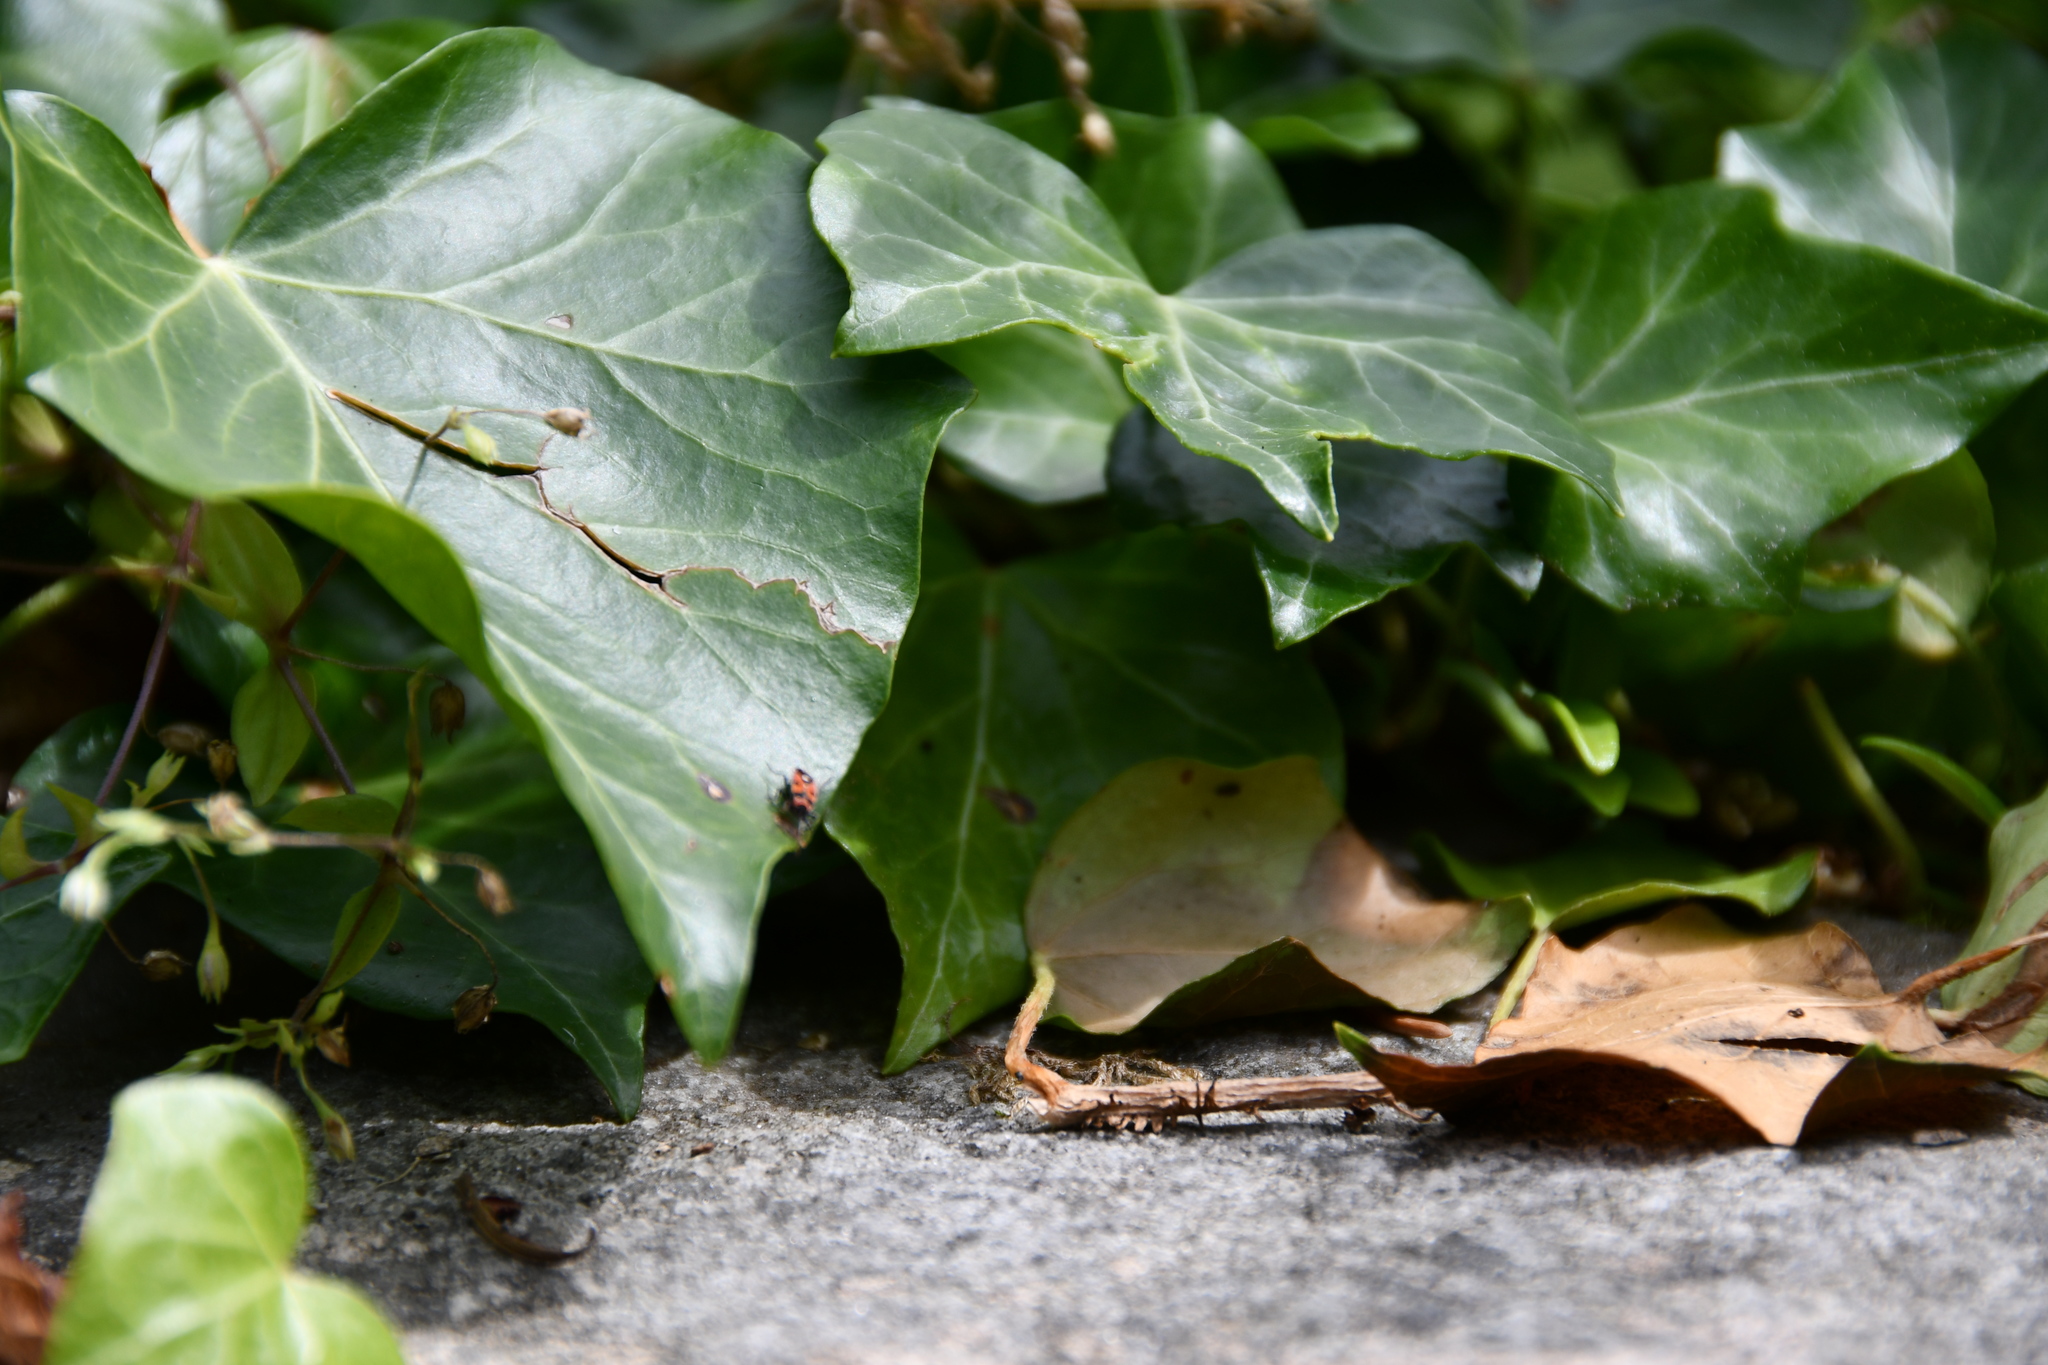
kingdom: Animalia
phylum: Arthropoda
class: Insecta
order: Hemiptera
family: Lygaeidae
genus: Horvathiolus
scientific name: Horvathiolus superbus
